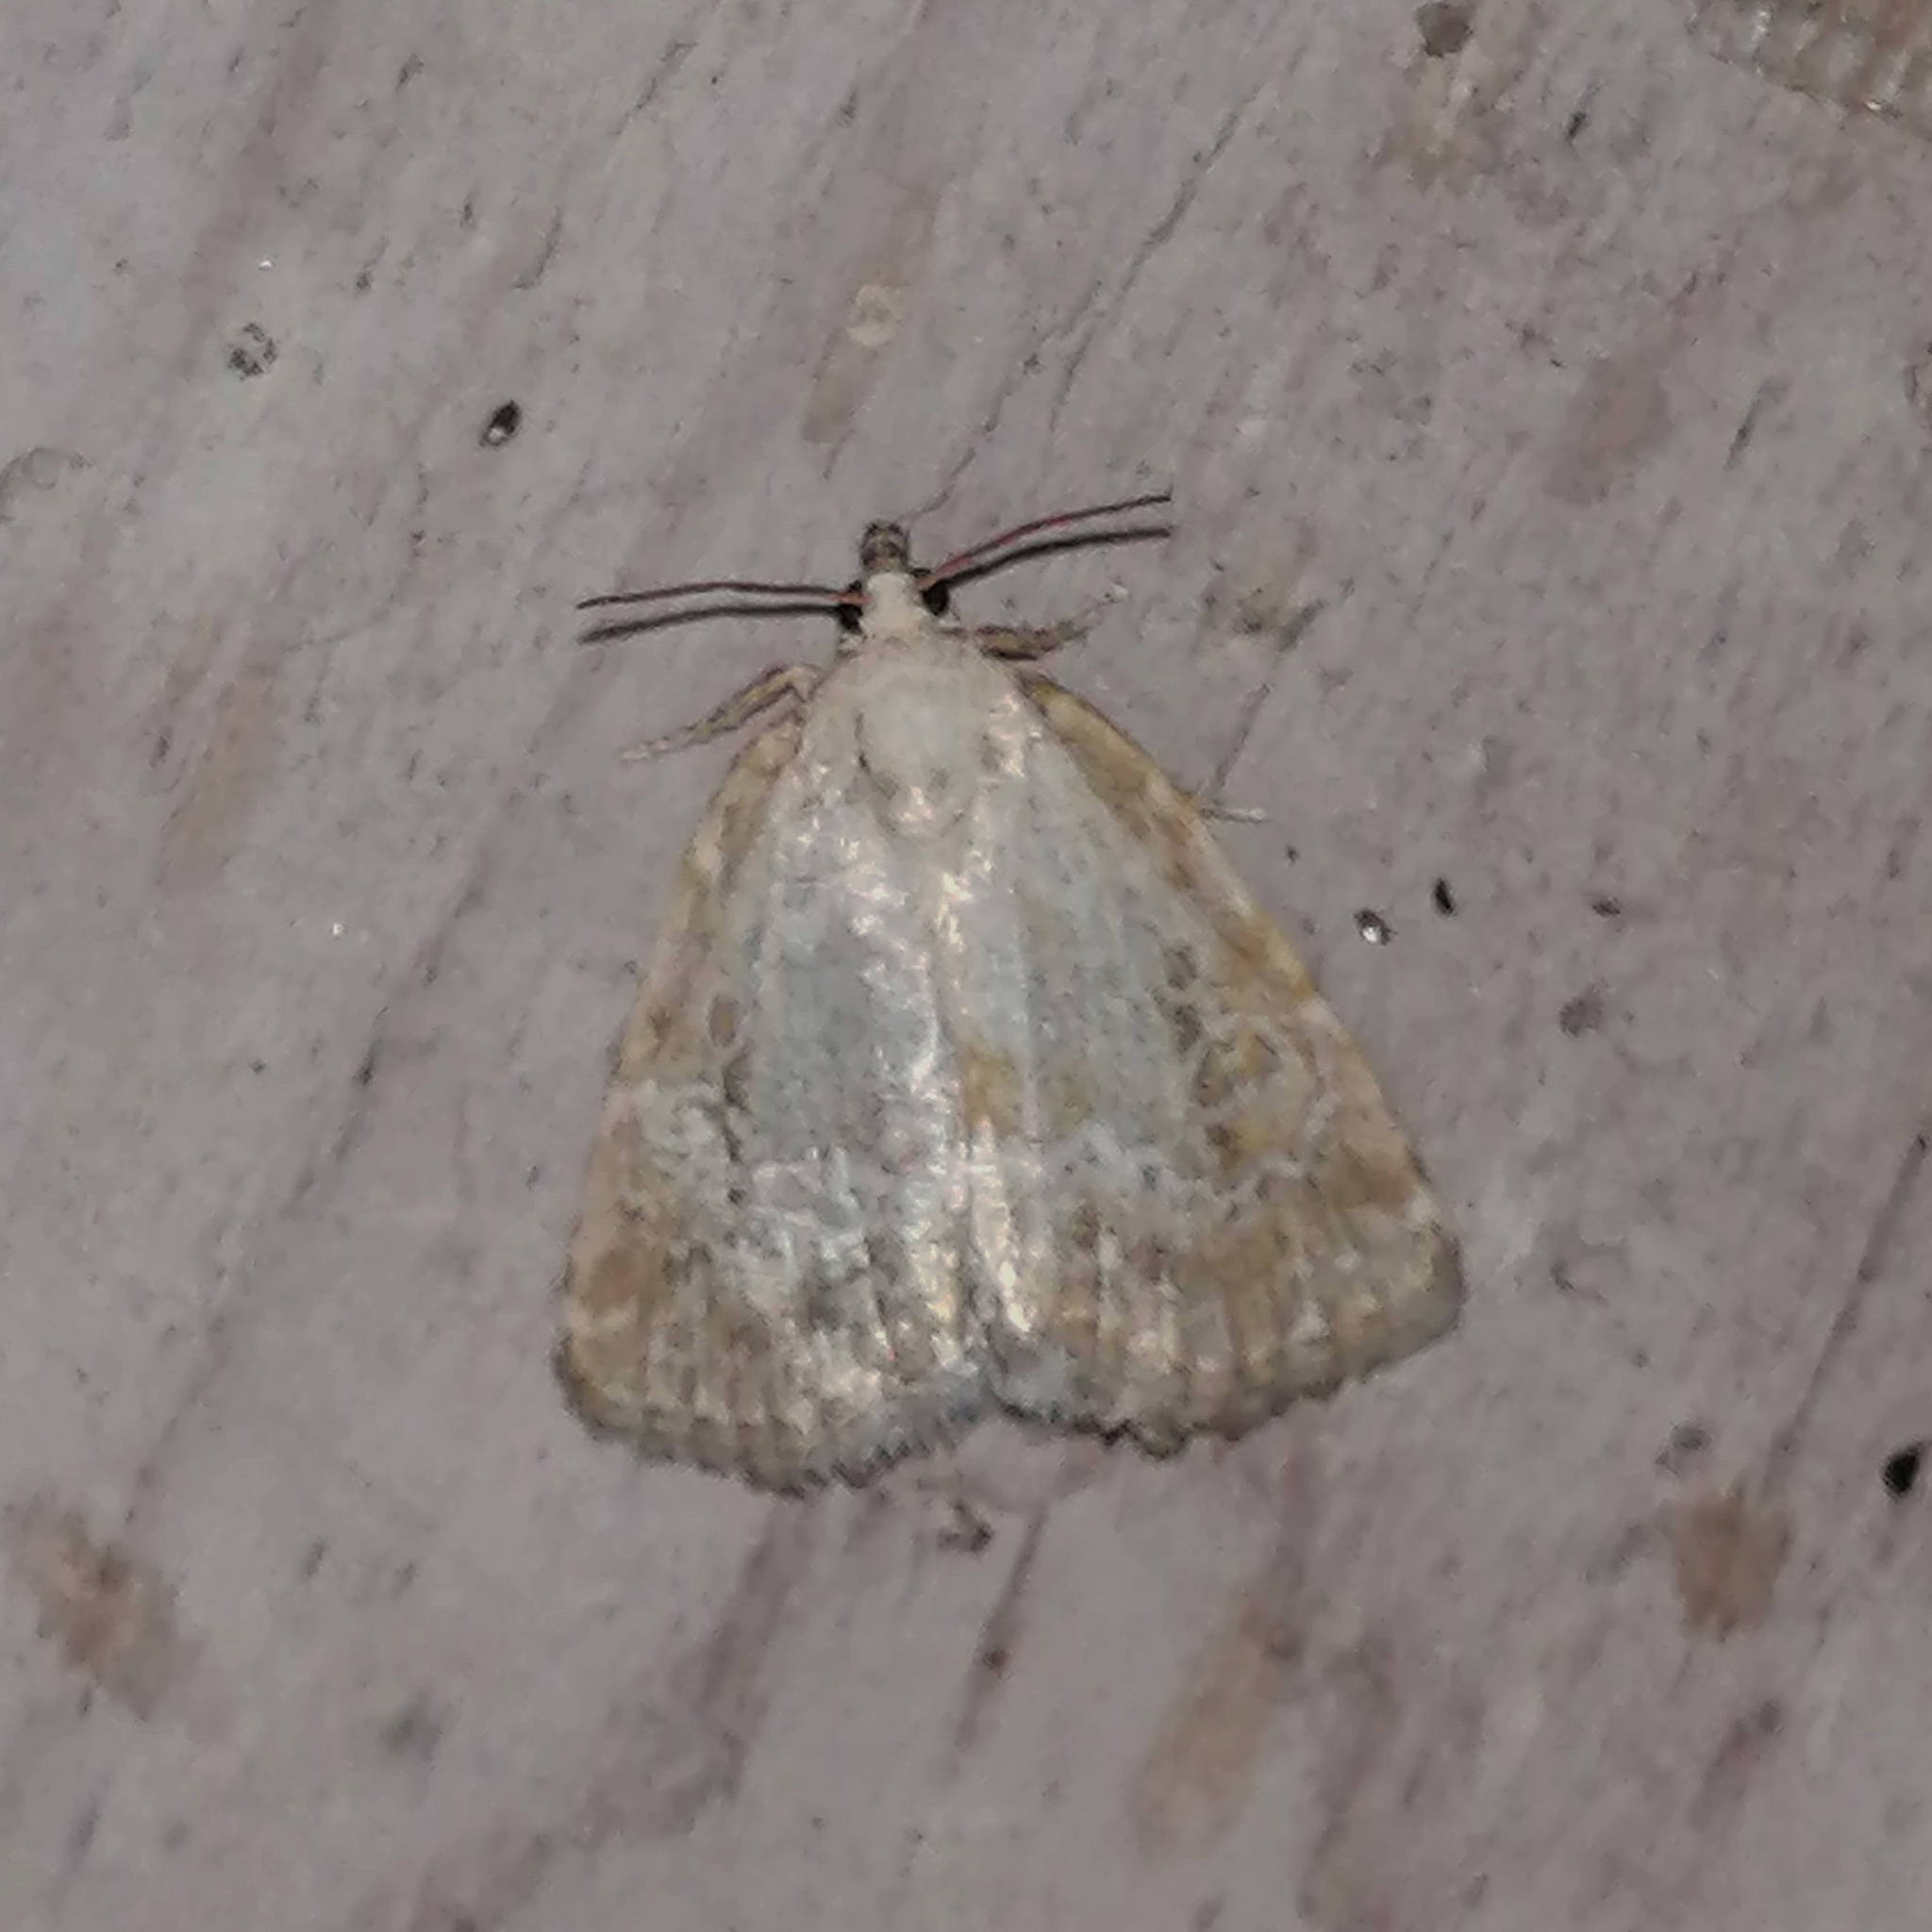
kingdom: Animalia
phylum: Arthropoda
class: Insecta
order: Lepidoptera
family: Noctuidae
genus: Protodeltote
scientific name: Protodeltote albidula
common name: Pale glyph
